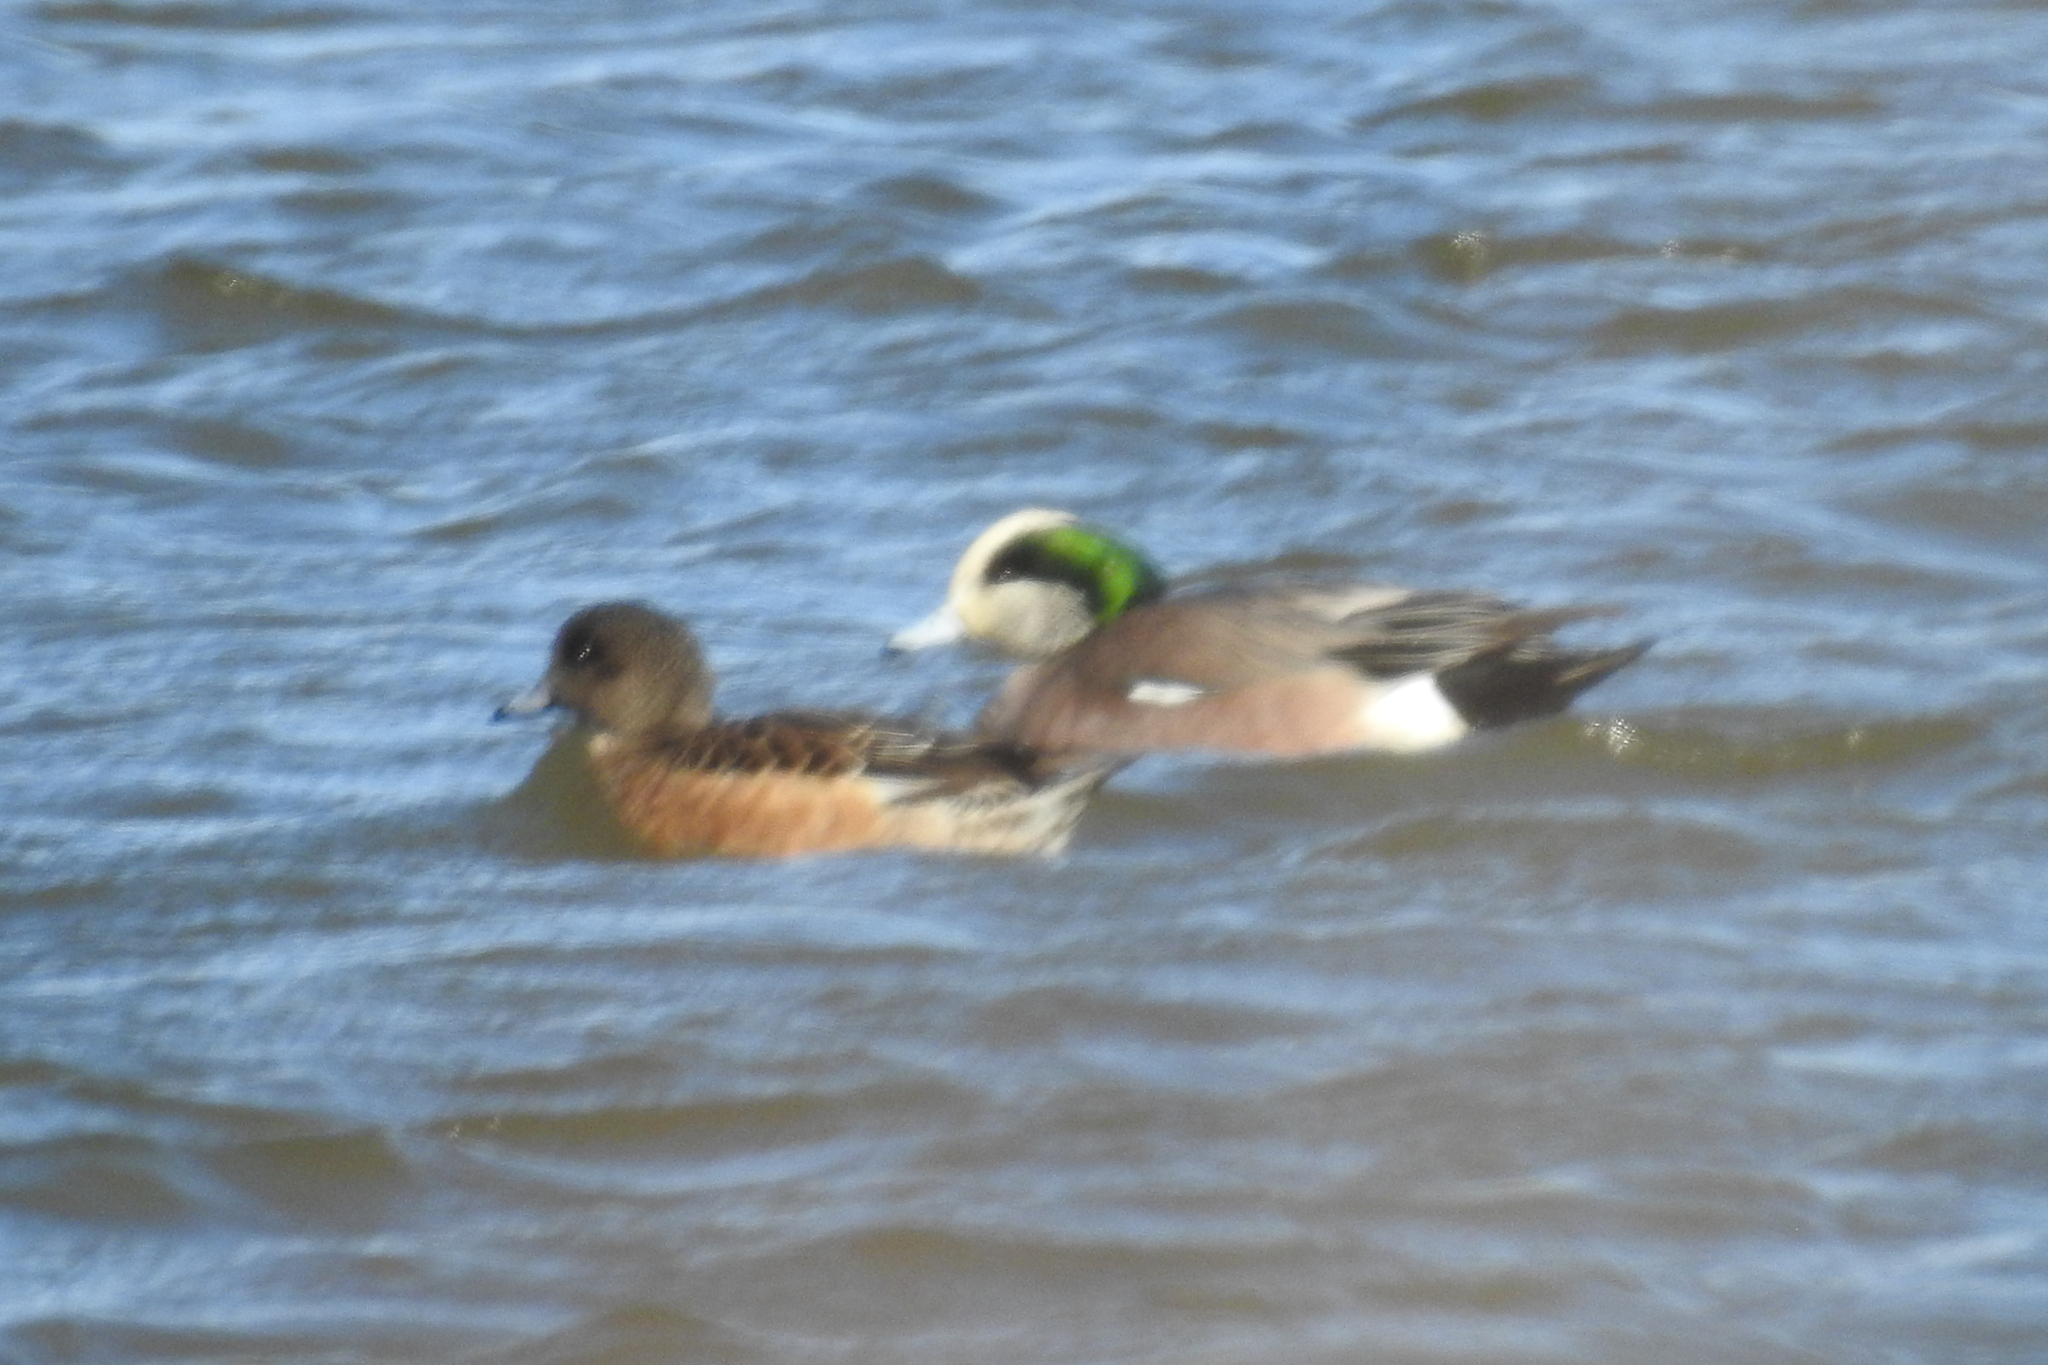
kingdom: Animalia
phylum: Chordata
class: Aves
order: Anseriformes
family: Anatidae
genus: Mareca
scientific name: Mareca americana
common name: American wigeon
